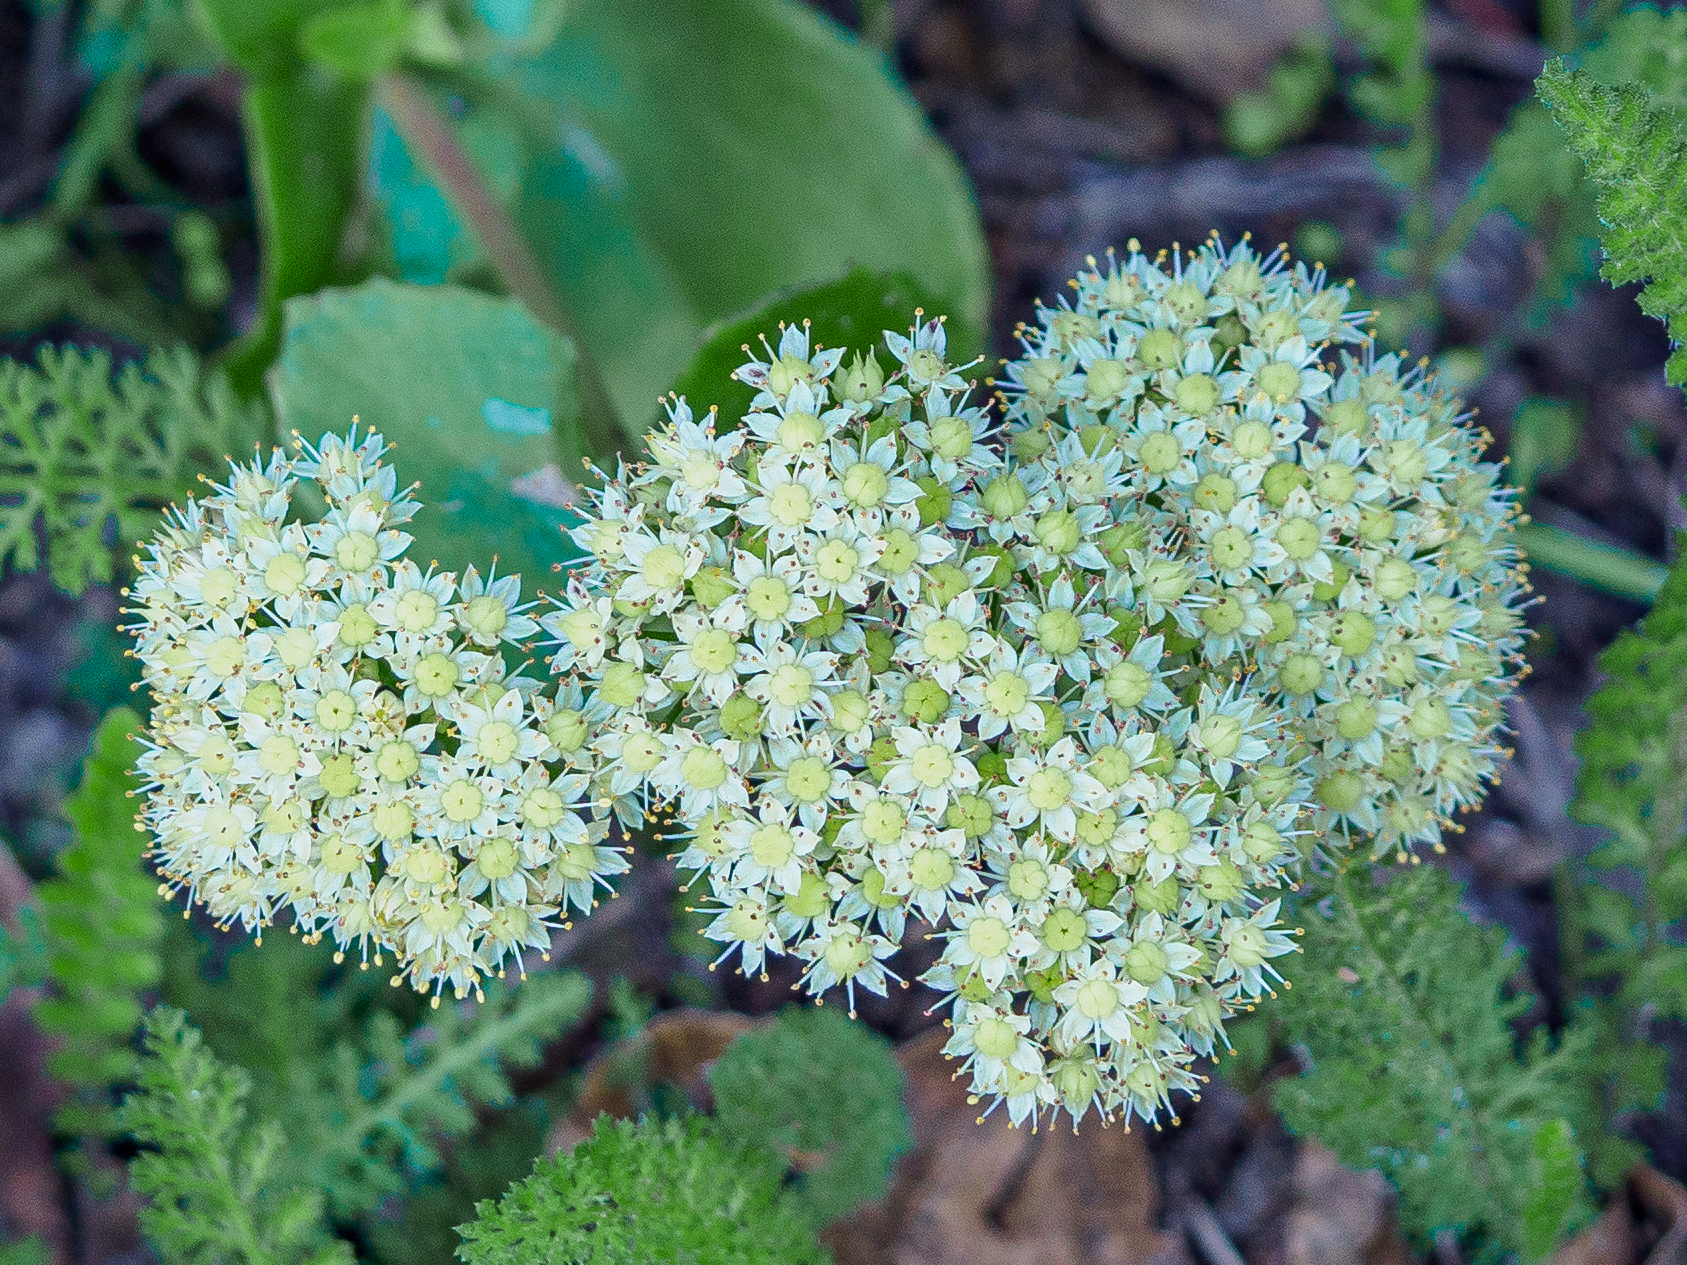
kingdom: Plantae
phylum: Tracheophyta
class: Magnoliopsida
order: Saxifragales
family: Crassulaceae
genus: Hylotelephium
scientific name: Hylotelephium maximum
